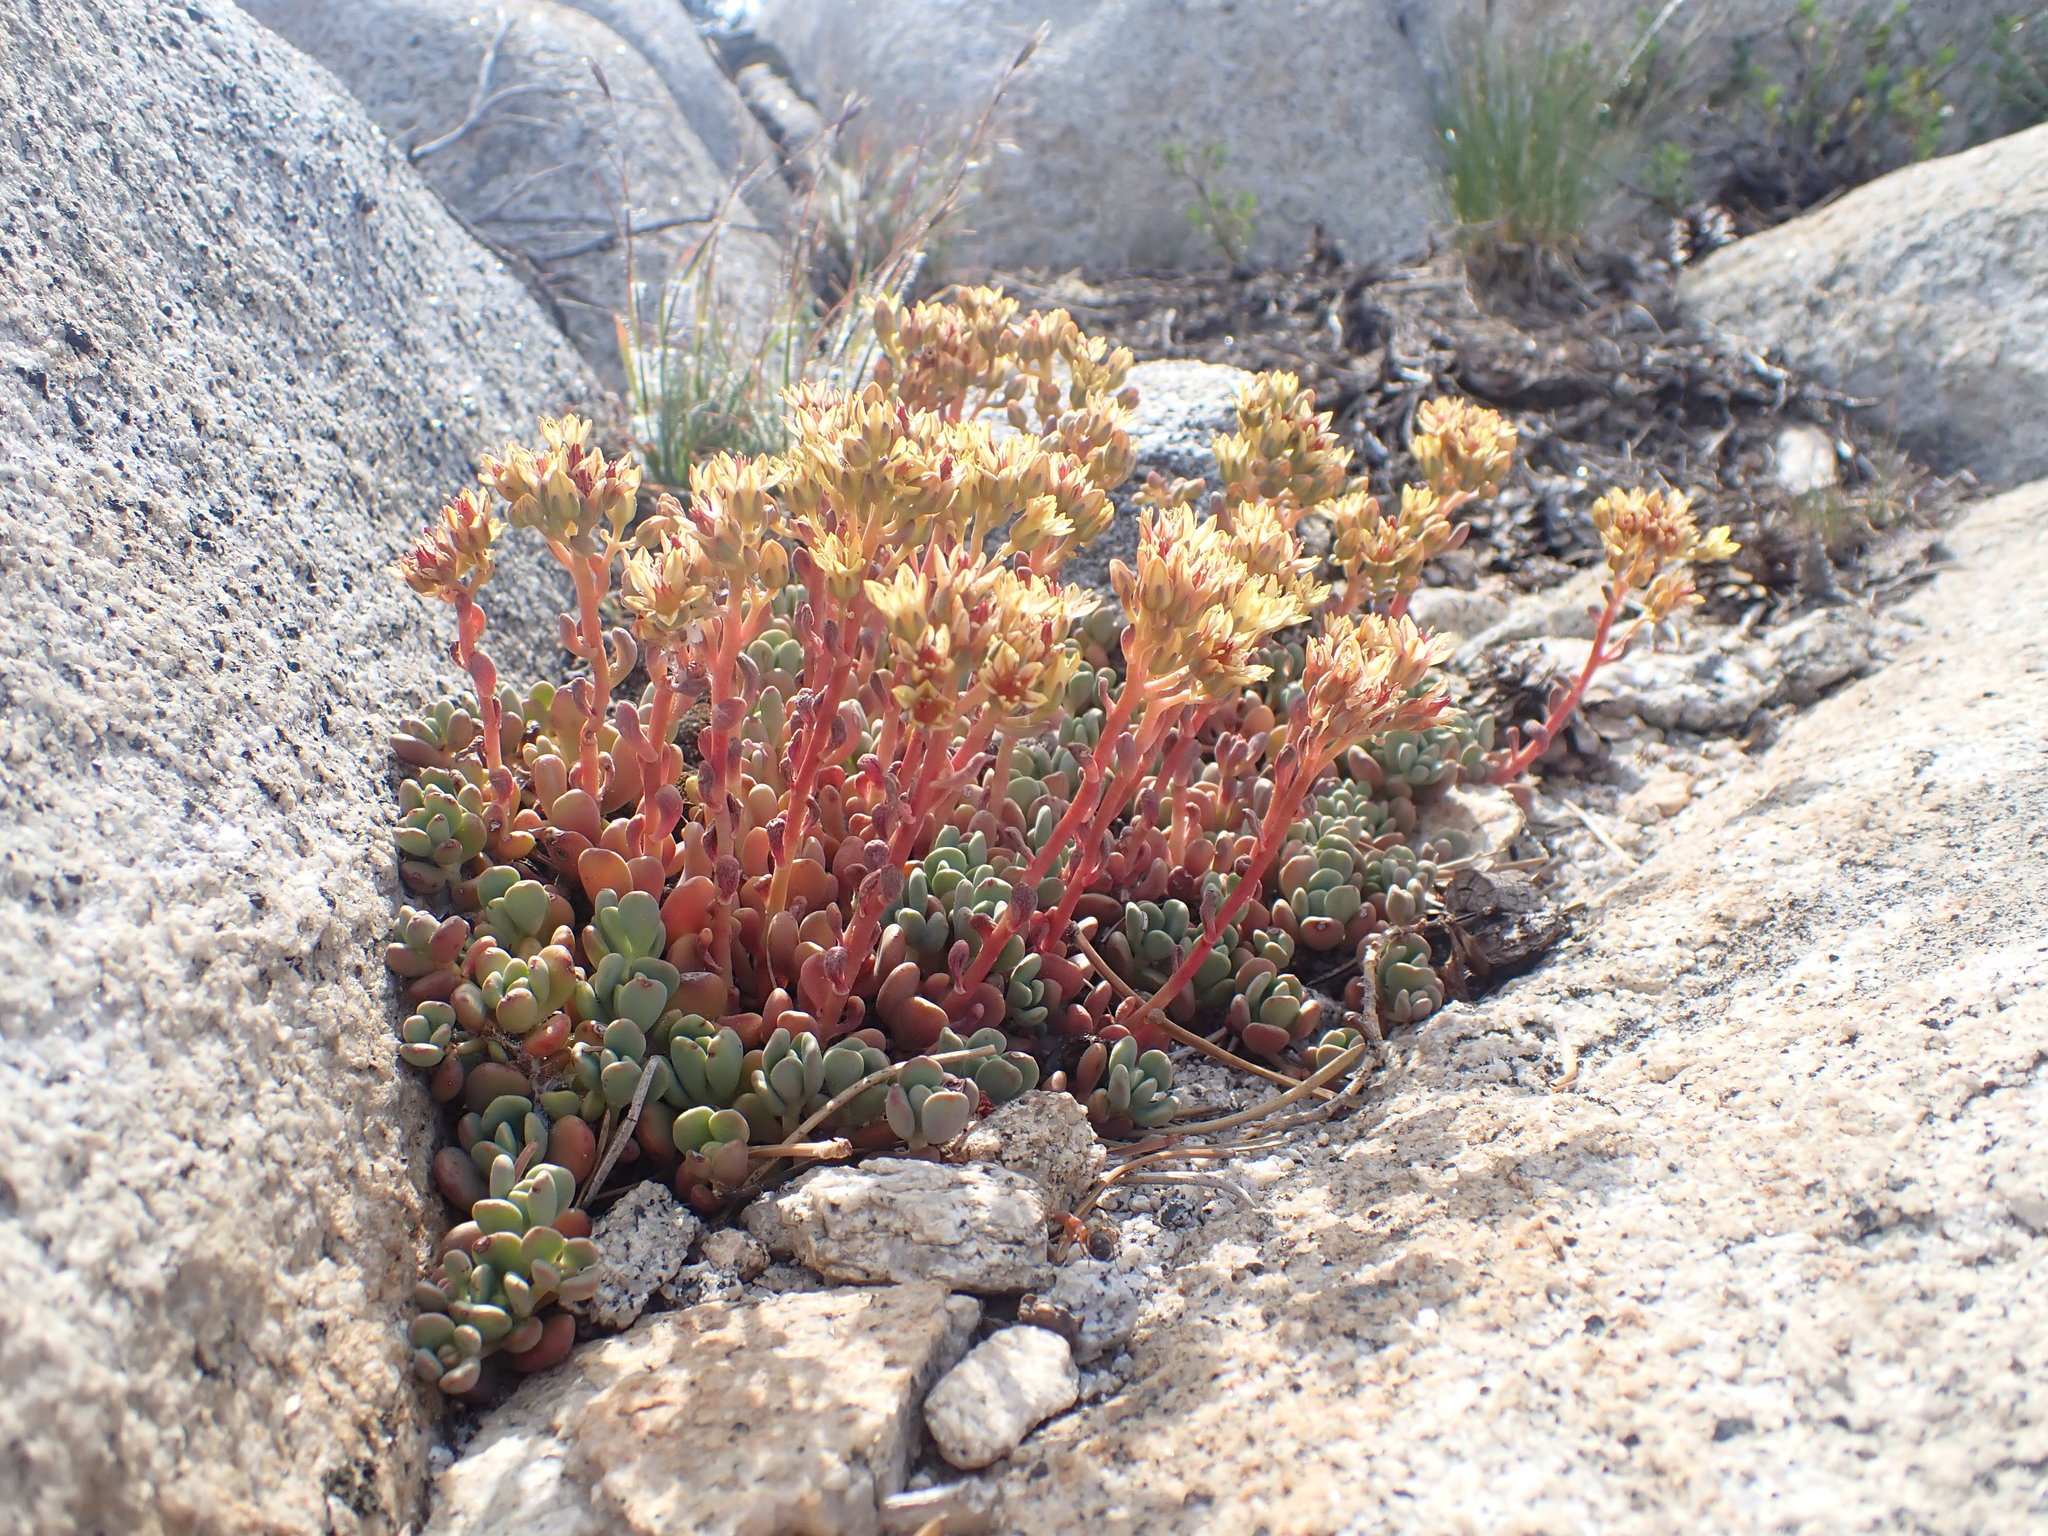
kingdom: Plantae
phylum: Tracheophyta
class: Magnoliopsida
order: Saxifragales
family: Crassulaceae
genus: Sedum
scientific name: Sedum obtusatum
